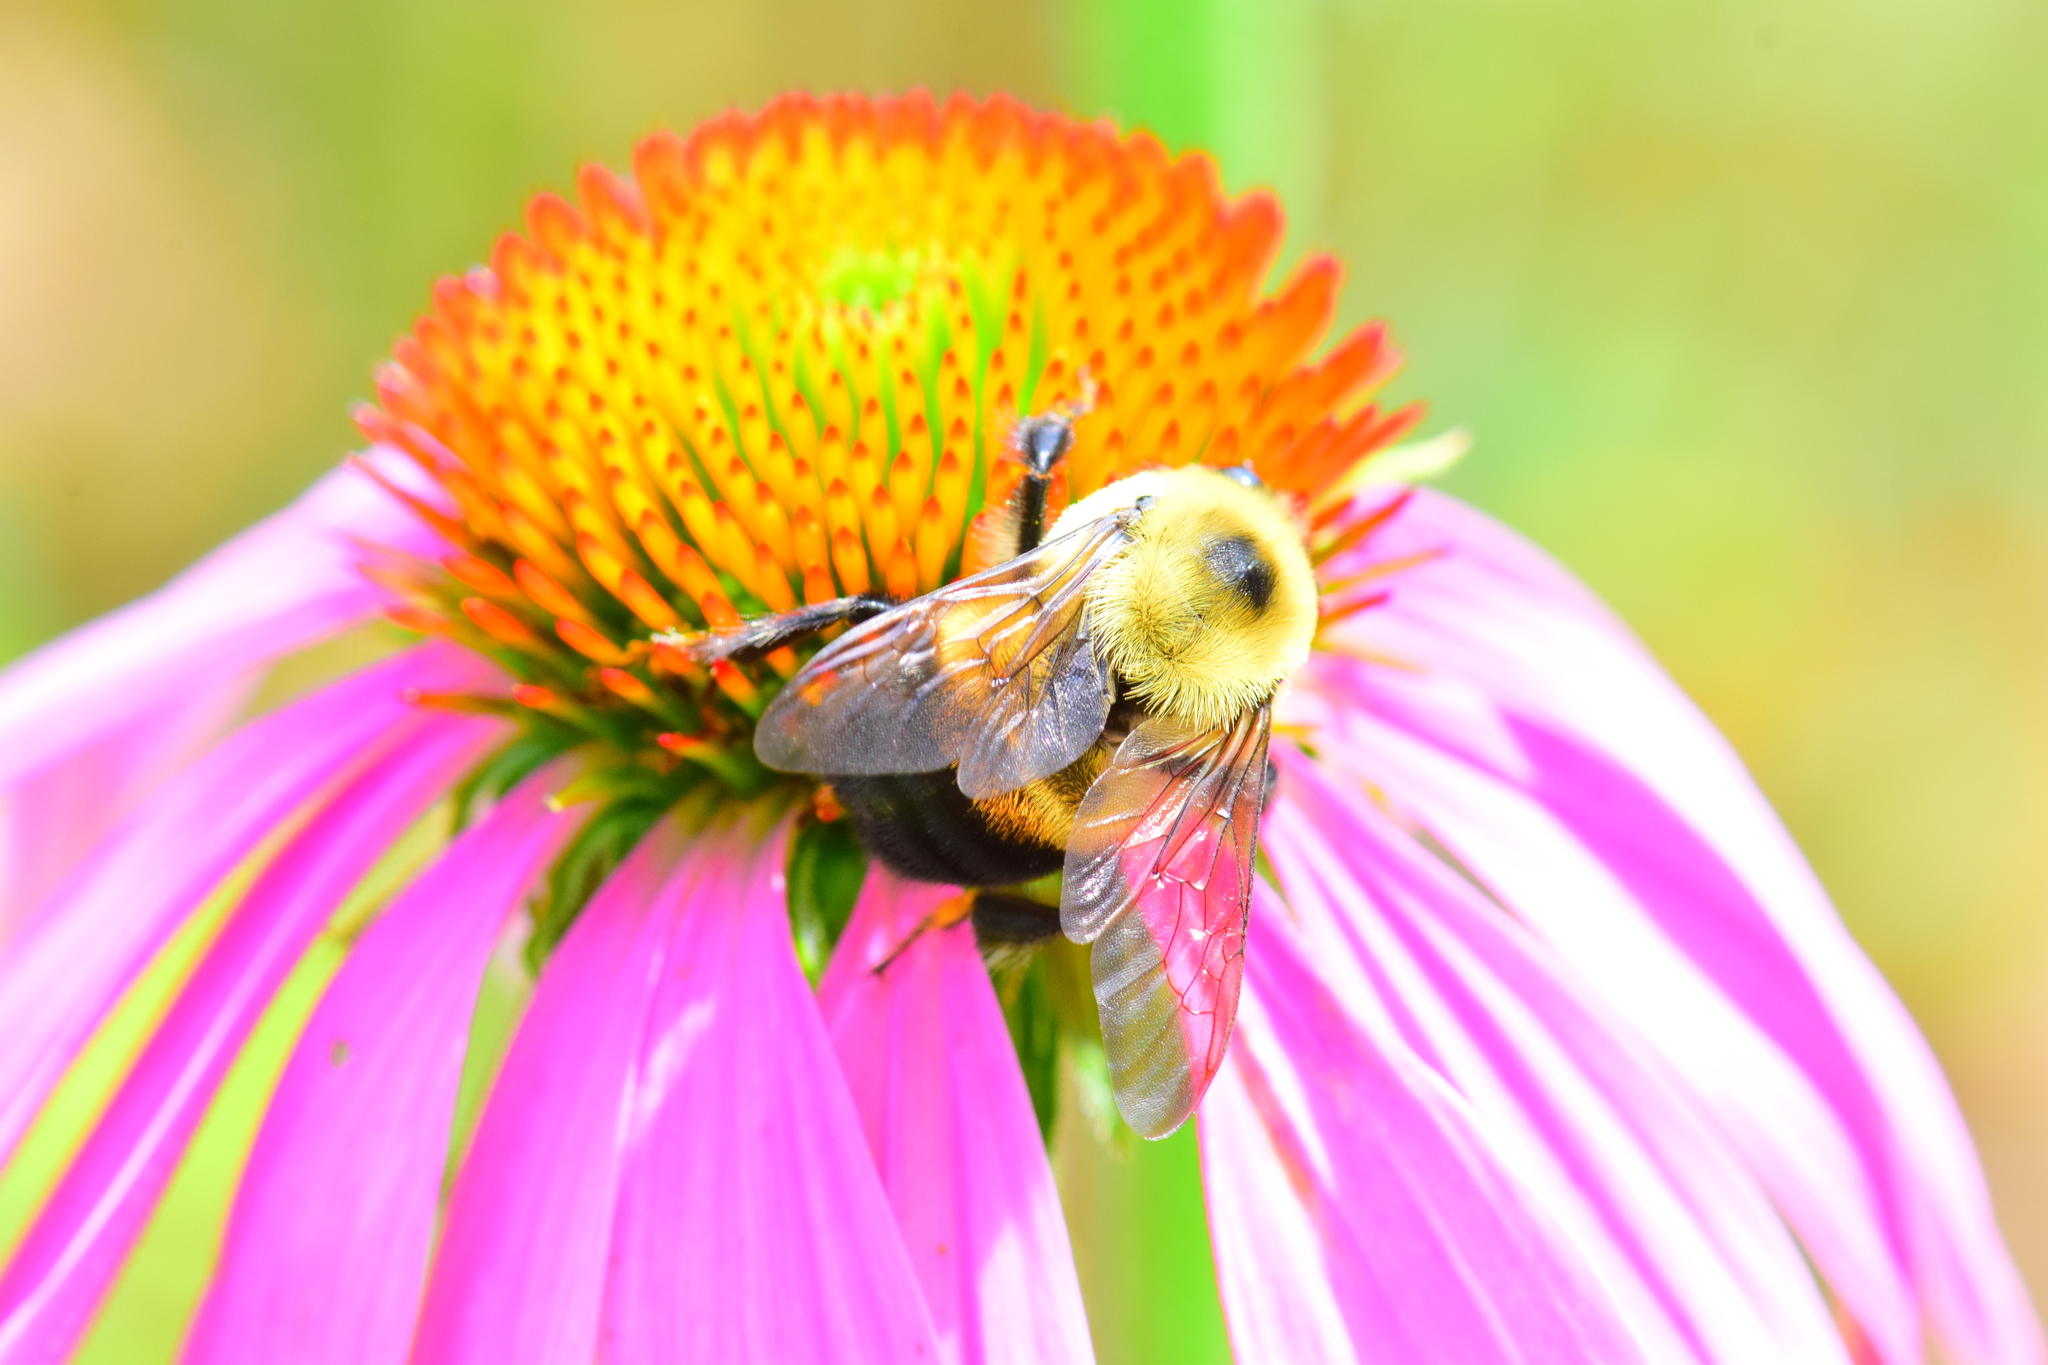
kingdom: Animalia
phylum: Arthropoda
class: Insecta
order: Hymenoptera
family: Apidae
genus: Bombus
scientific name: Bombus griseocollis
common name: Brown-belted bumble bee
